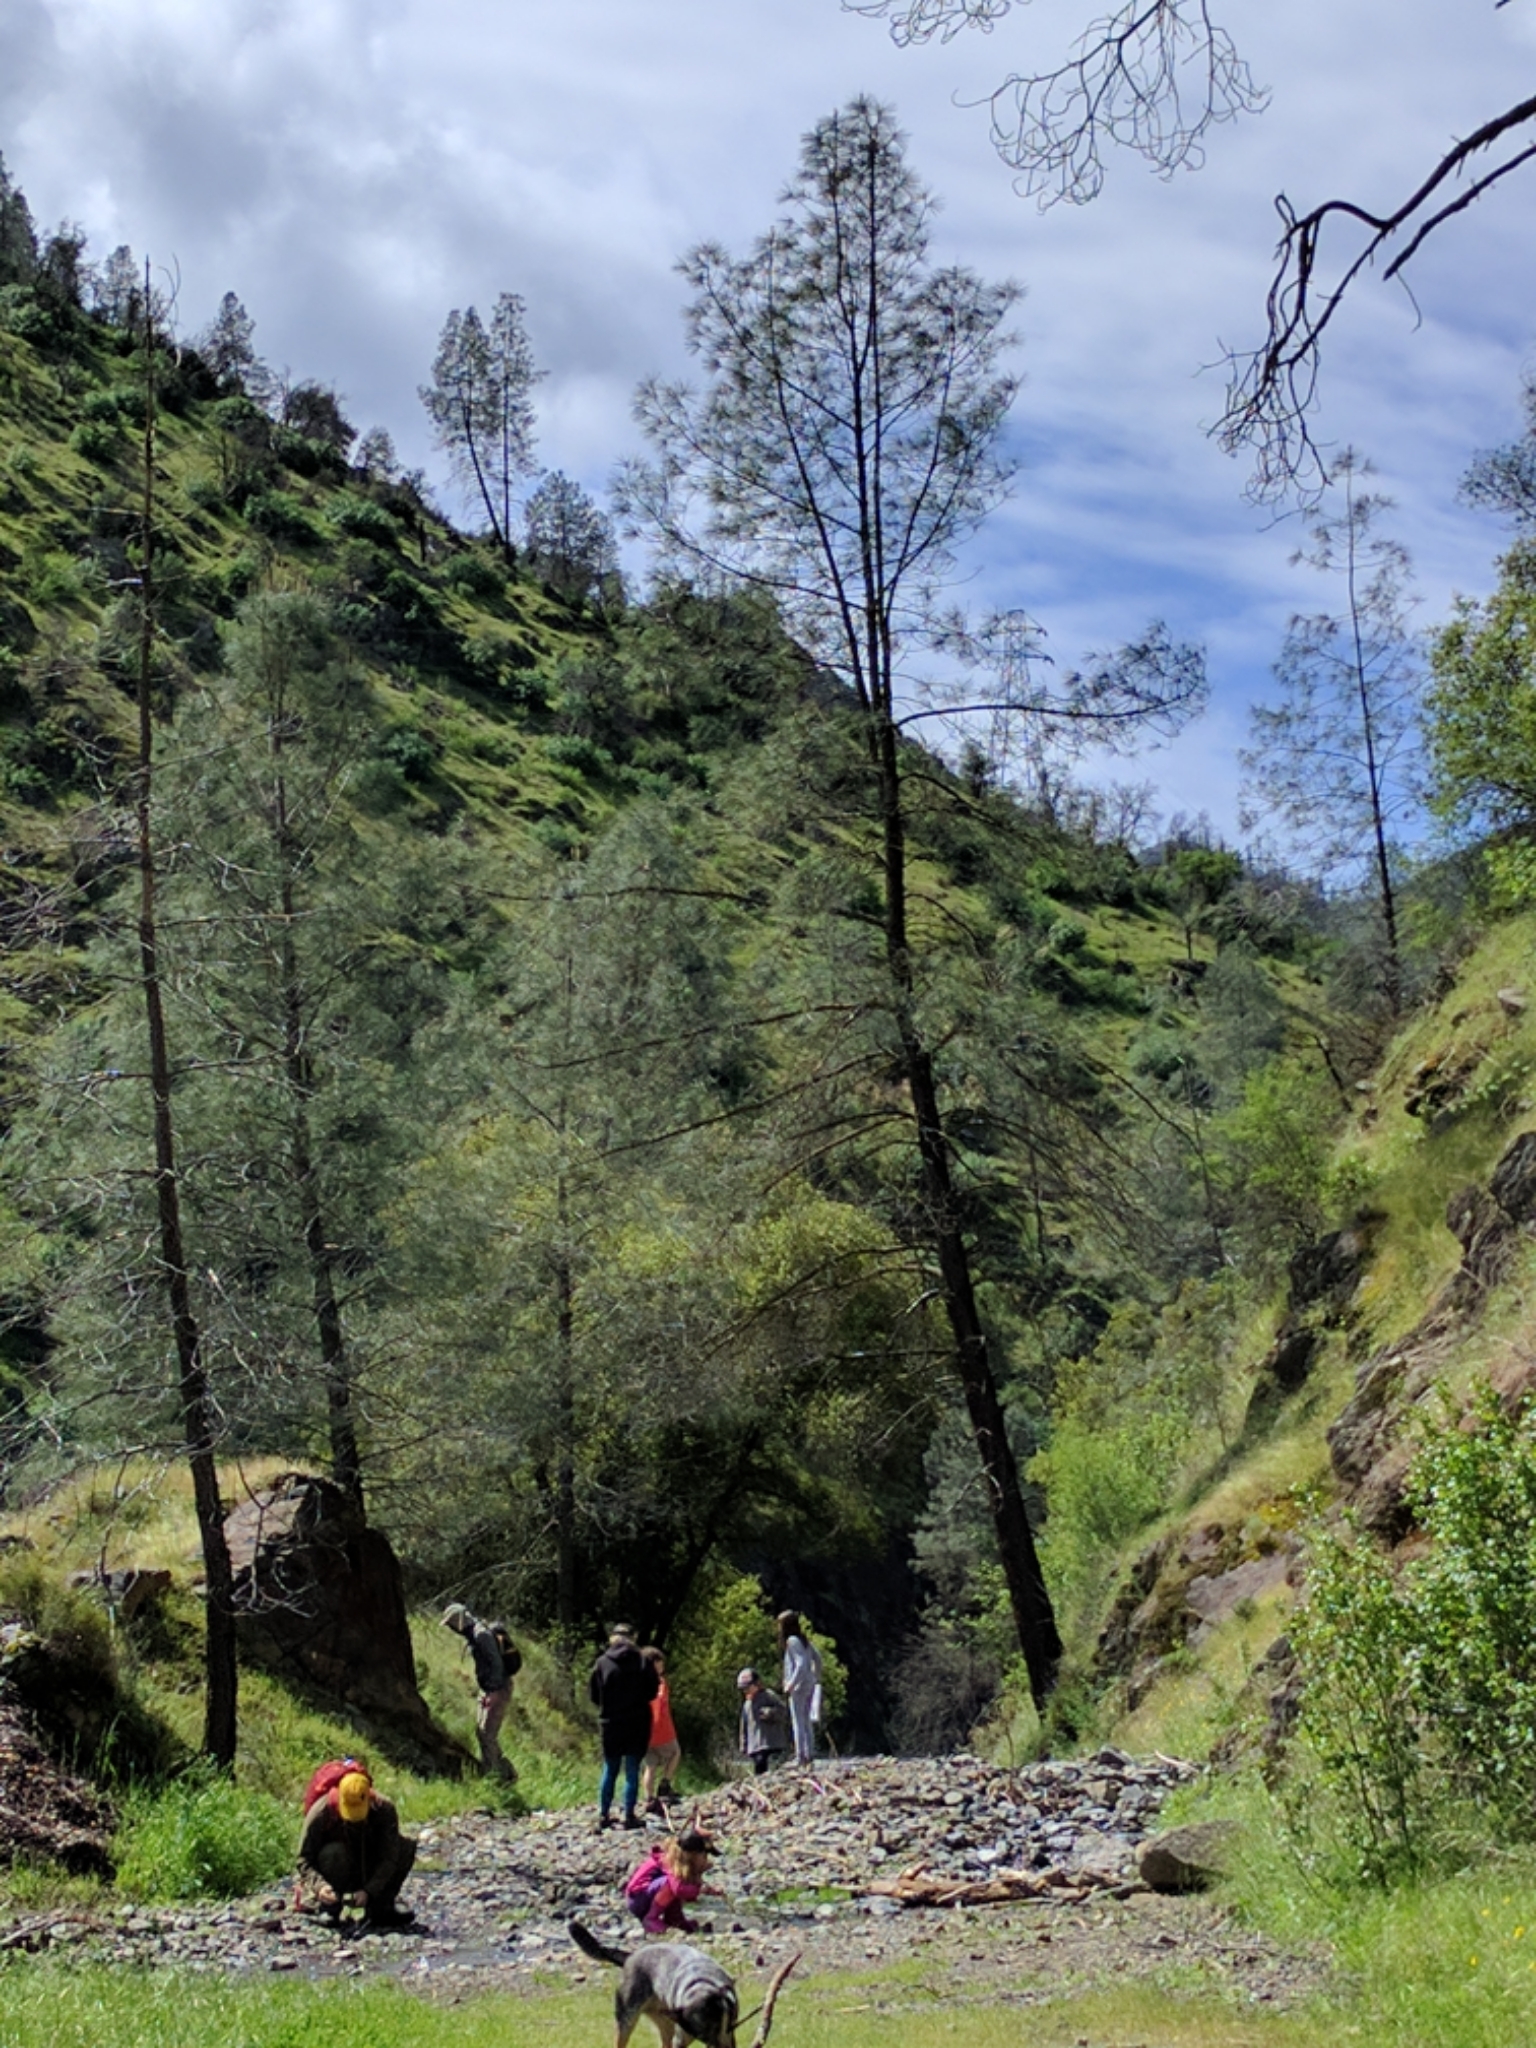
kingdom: Plantae
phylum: Tracheophyta
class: Pinopsida
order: Pinales
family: Pinaceae
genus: Pinus
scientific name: Pinus sabiniana
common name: Bull pine
